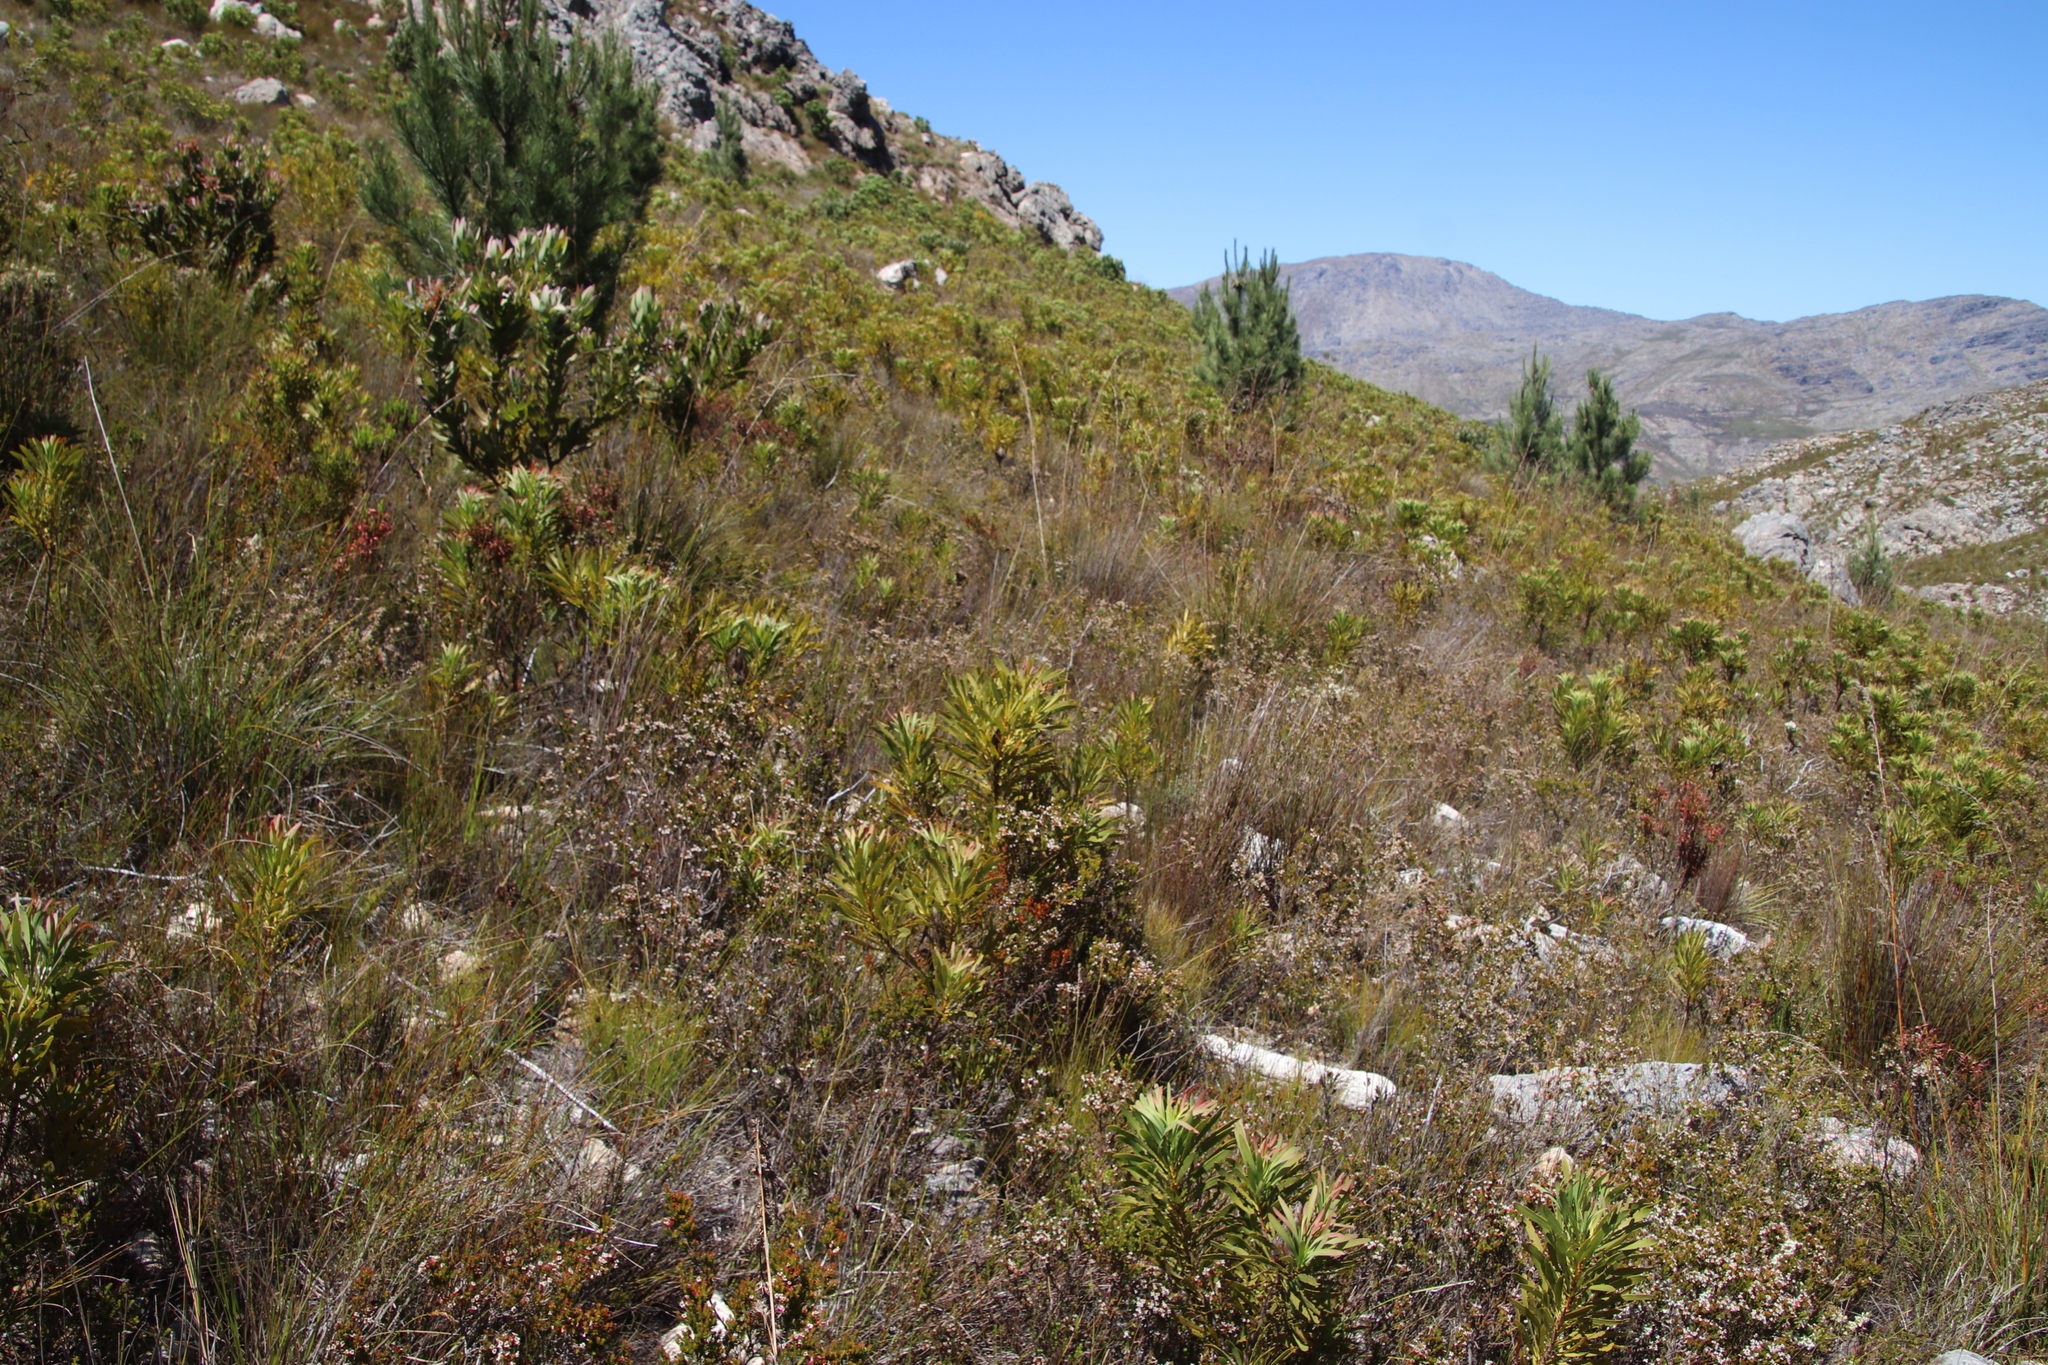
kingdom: Plantae
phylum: Tracheophyta
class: Magnoliopsida
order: Proteales
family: Proteaceae
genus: Protea
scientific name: Protea repens
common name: Sugarbush
